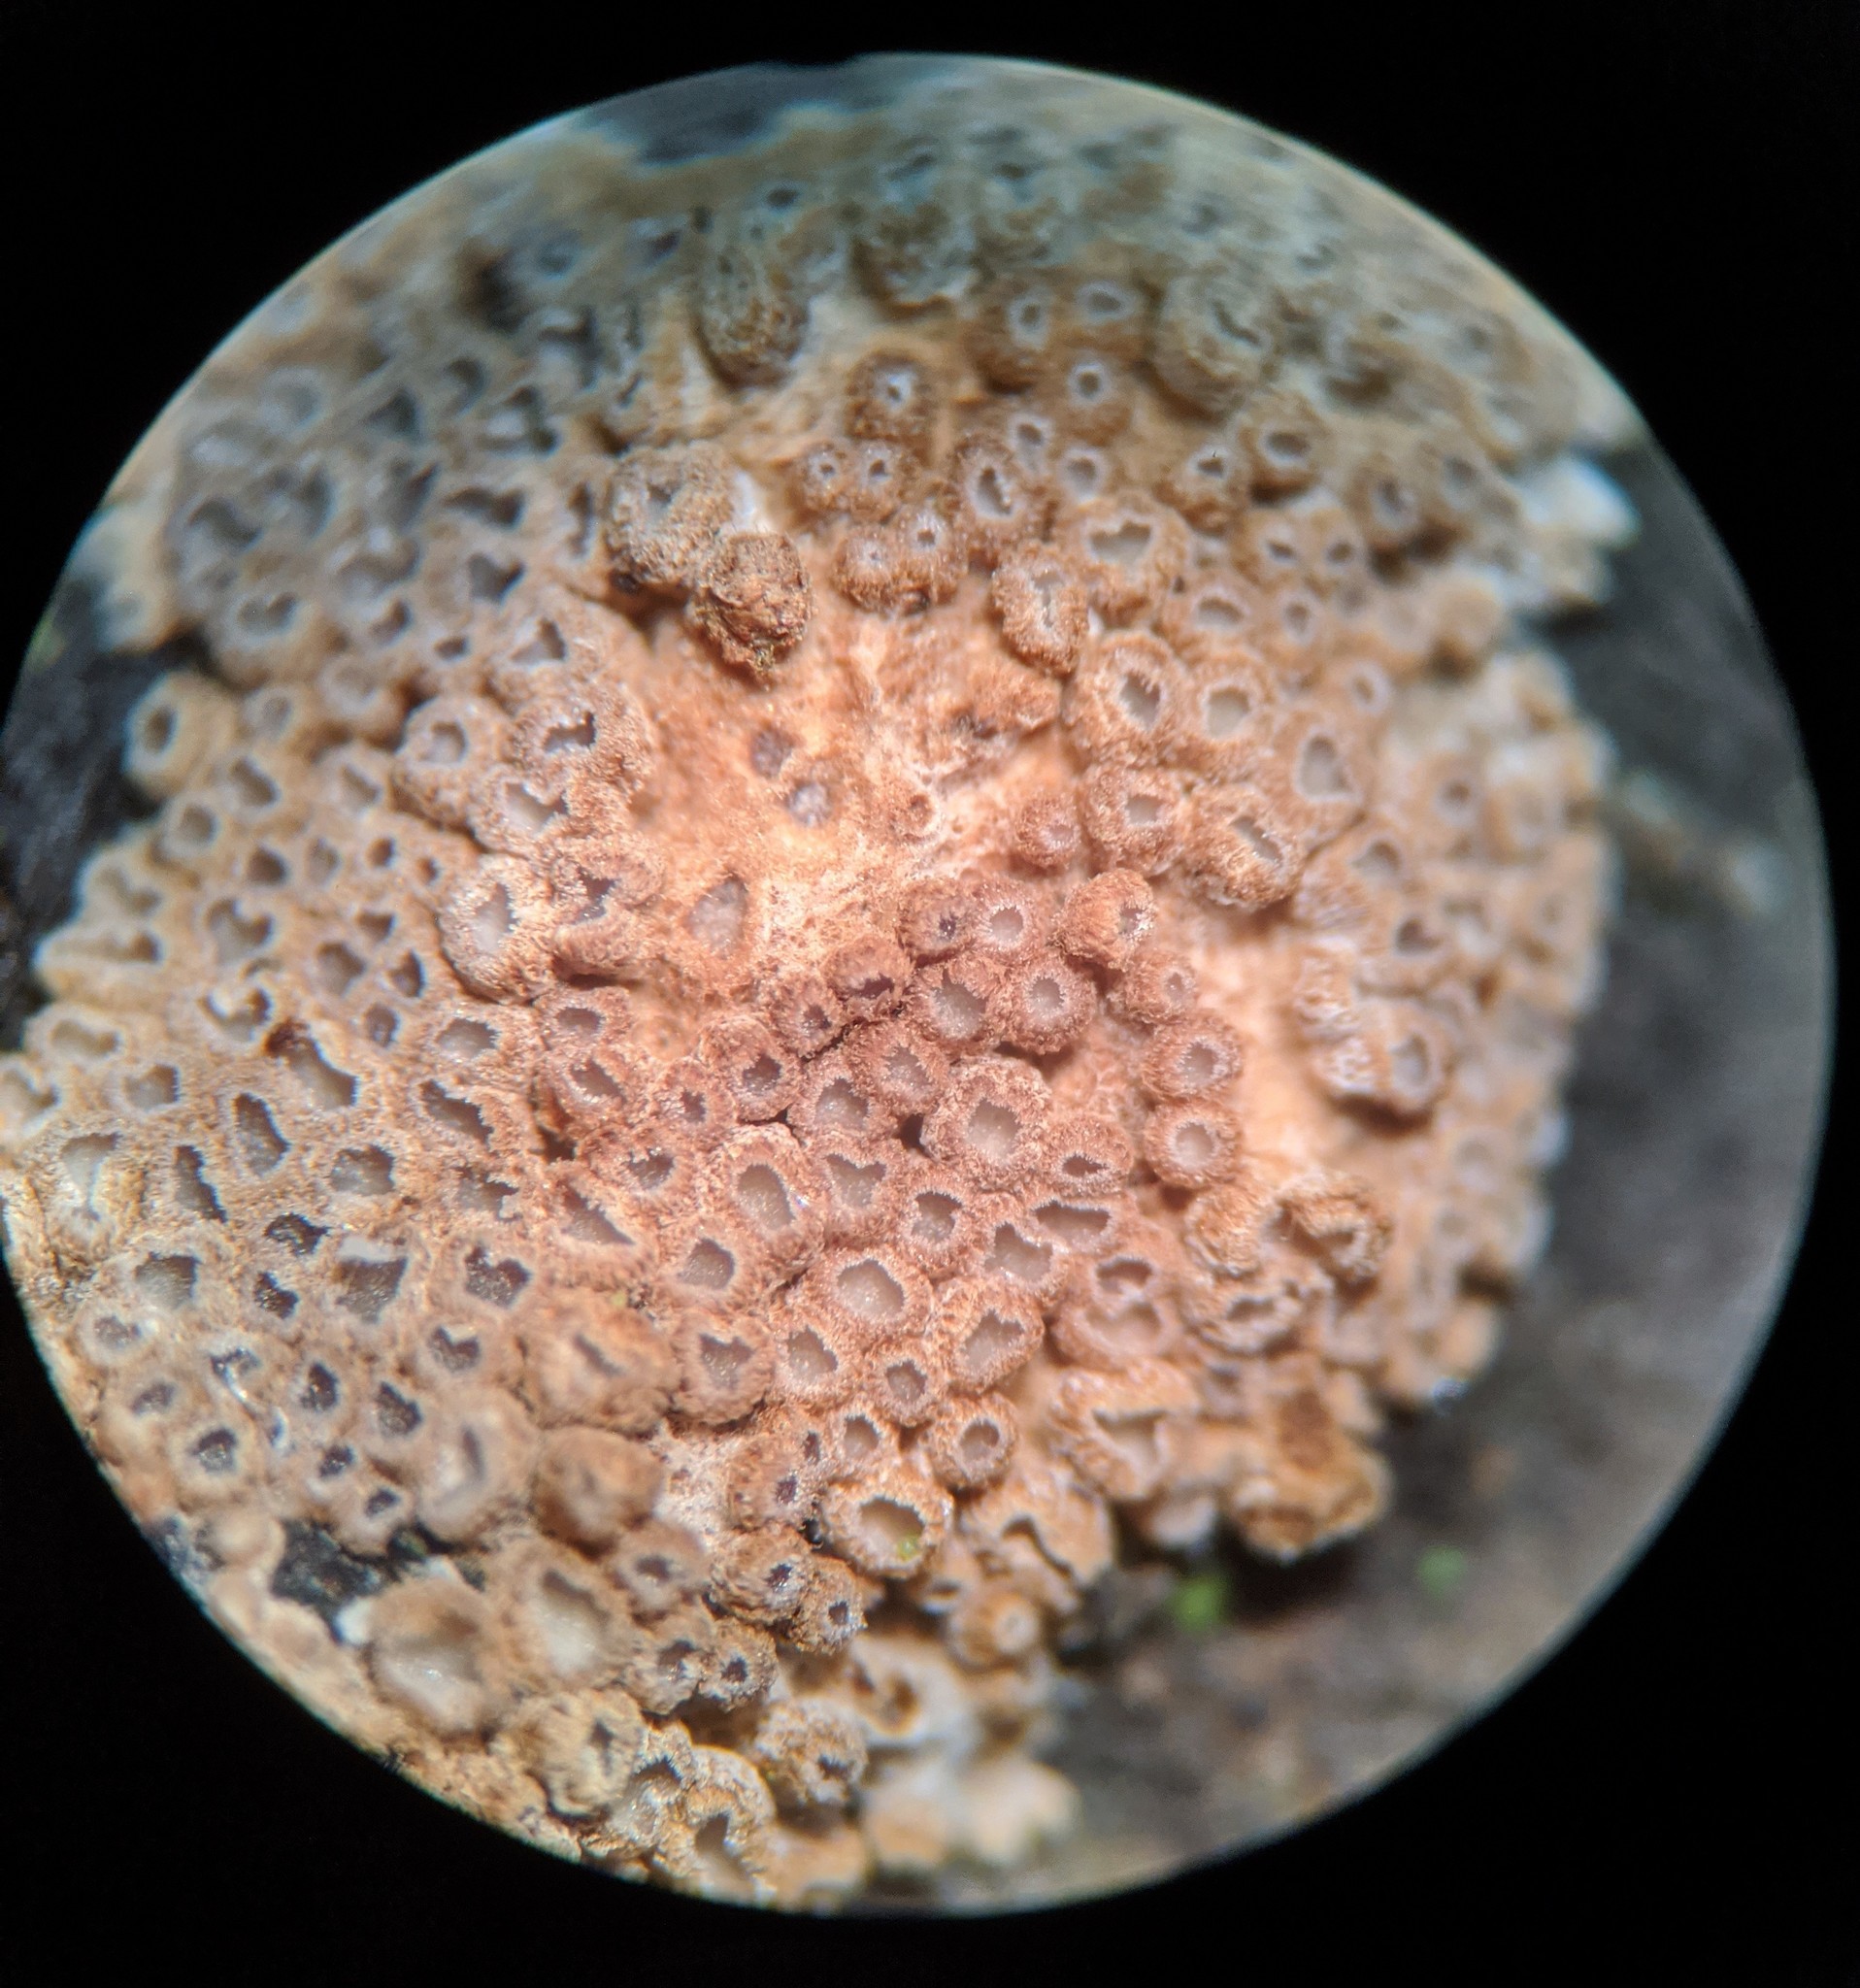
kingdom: Fungi
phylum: Basidiomycota
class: Agaricomycetes
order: Agaricales
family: Niaceae
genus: Merismodes
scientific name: Merismodes fasciculata
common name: Crowded cuplet
